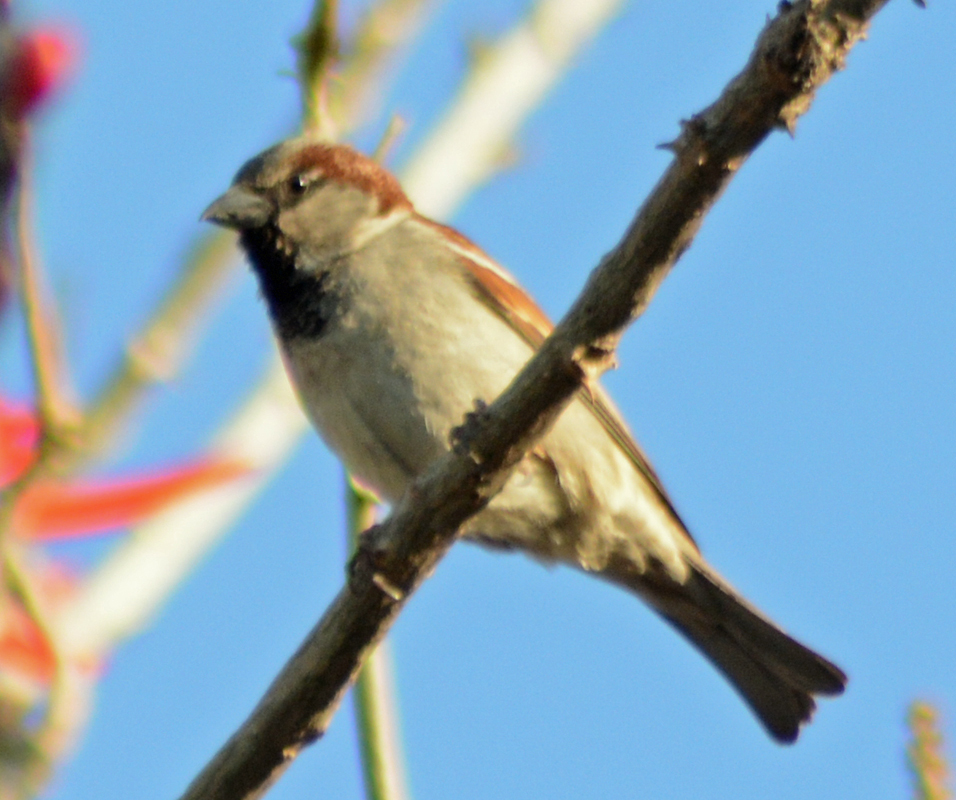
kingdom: Animalia
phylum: Chordata
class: Aves
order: Passeriformes
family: Passeridae
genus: Passer
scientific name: Passer domesticus
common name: House sparrow
